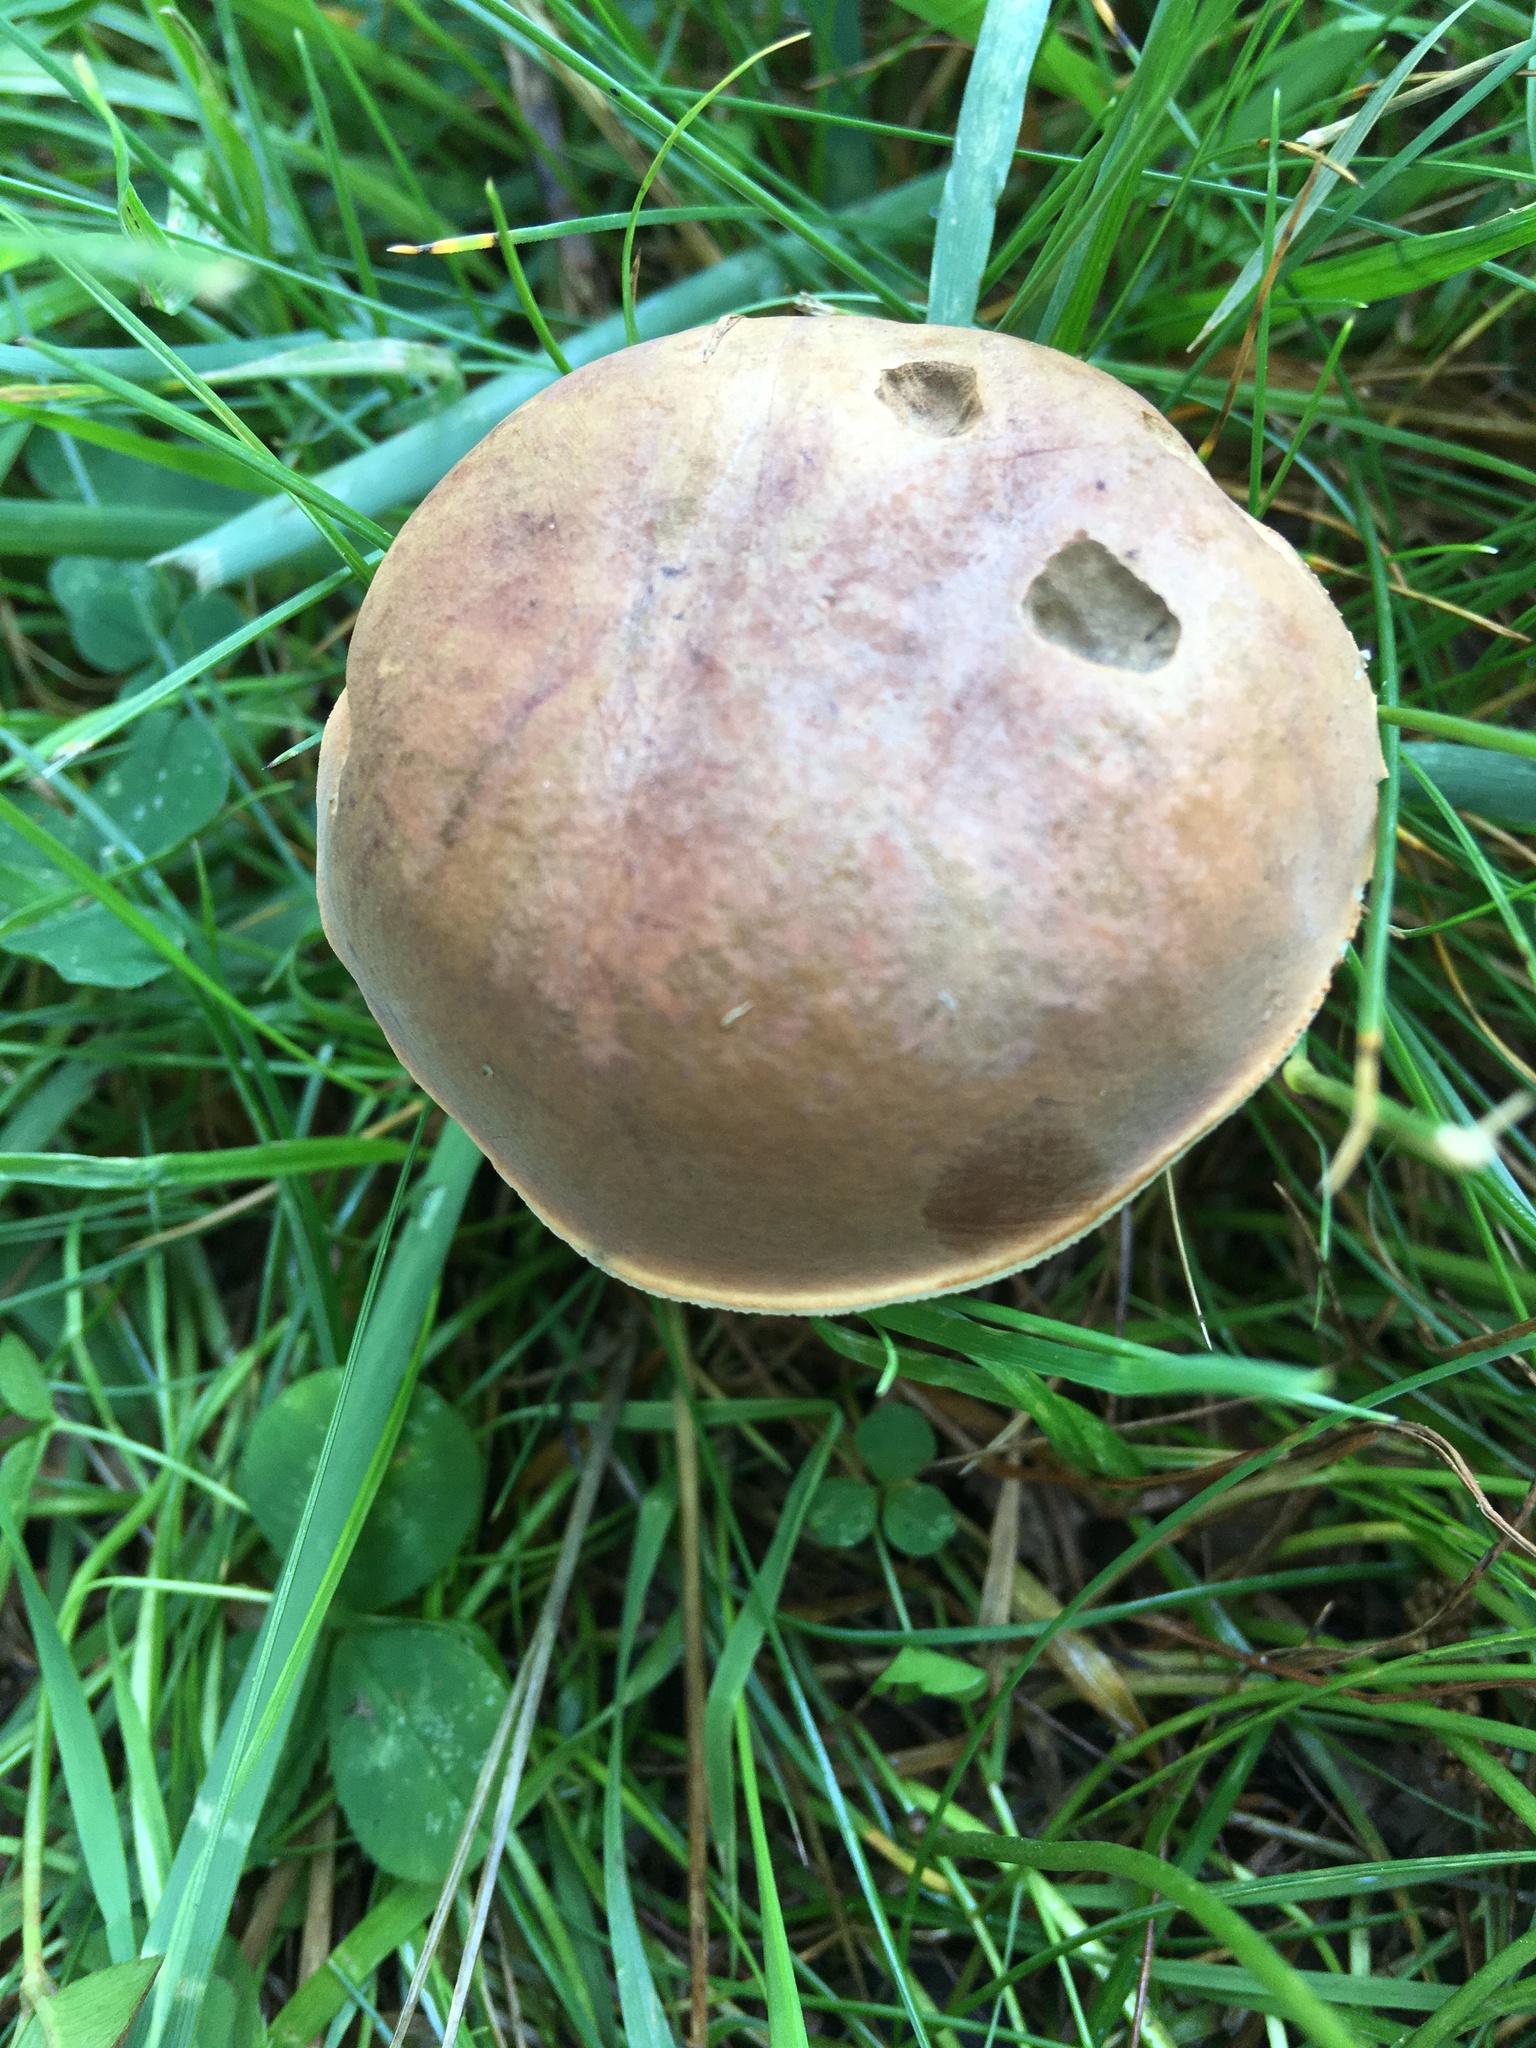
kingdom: Fungi
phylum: Basidiomycota
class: Agaricomycetes
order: Boletales
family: Boletaceae
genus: Tylopilus
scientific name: Tylopilus ferrugineus
